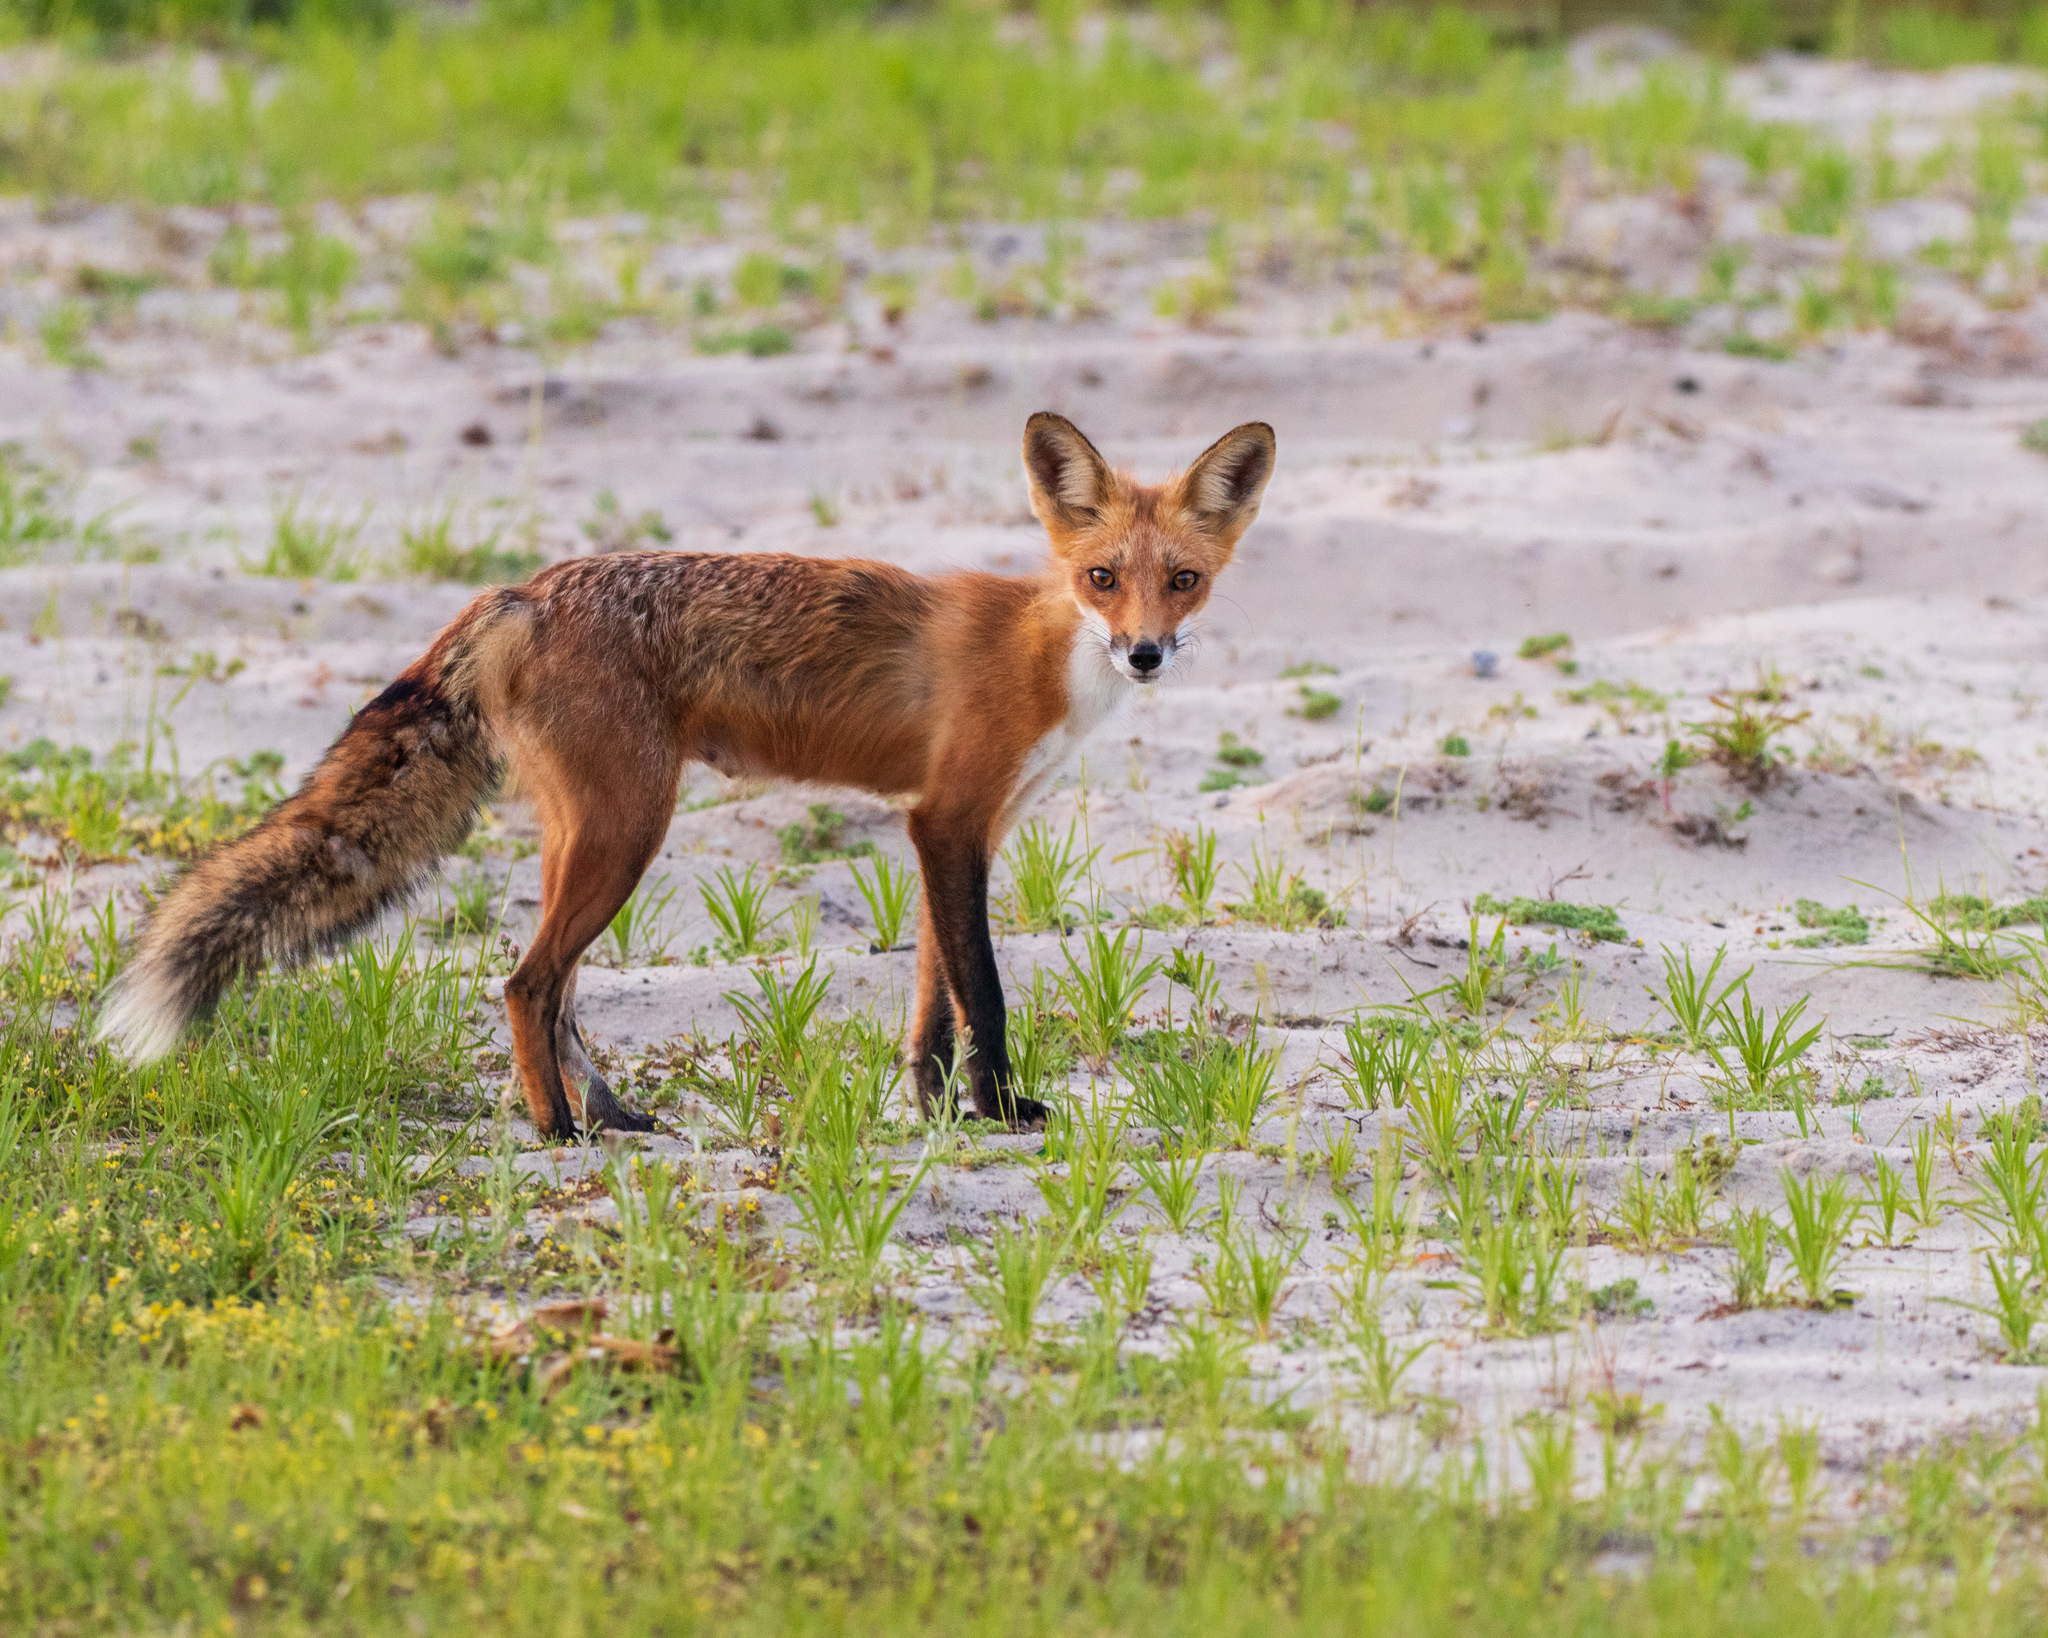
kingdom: Animalia
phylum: Chordata
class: Mammalia
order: Carnivora
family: Canidae
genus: Vulpes
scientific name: Vulpes vulpes
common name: Red fox
